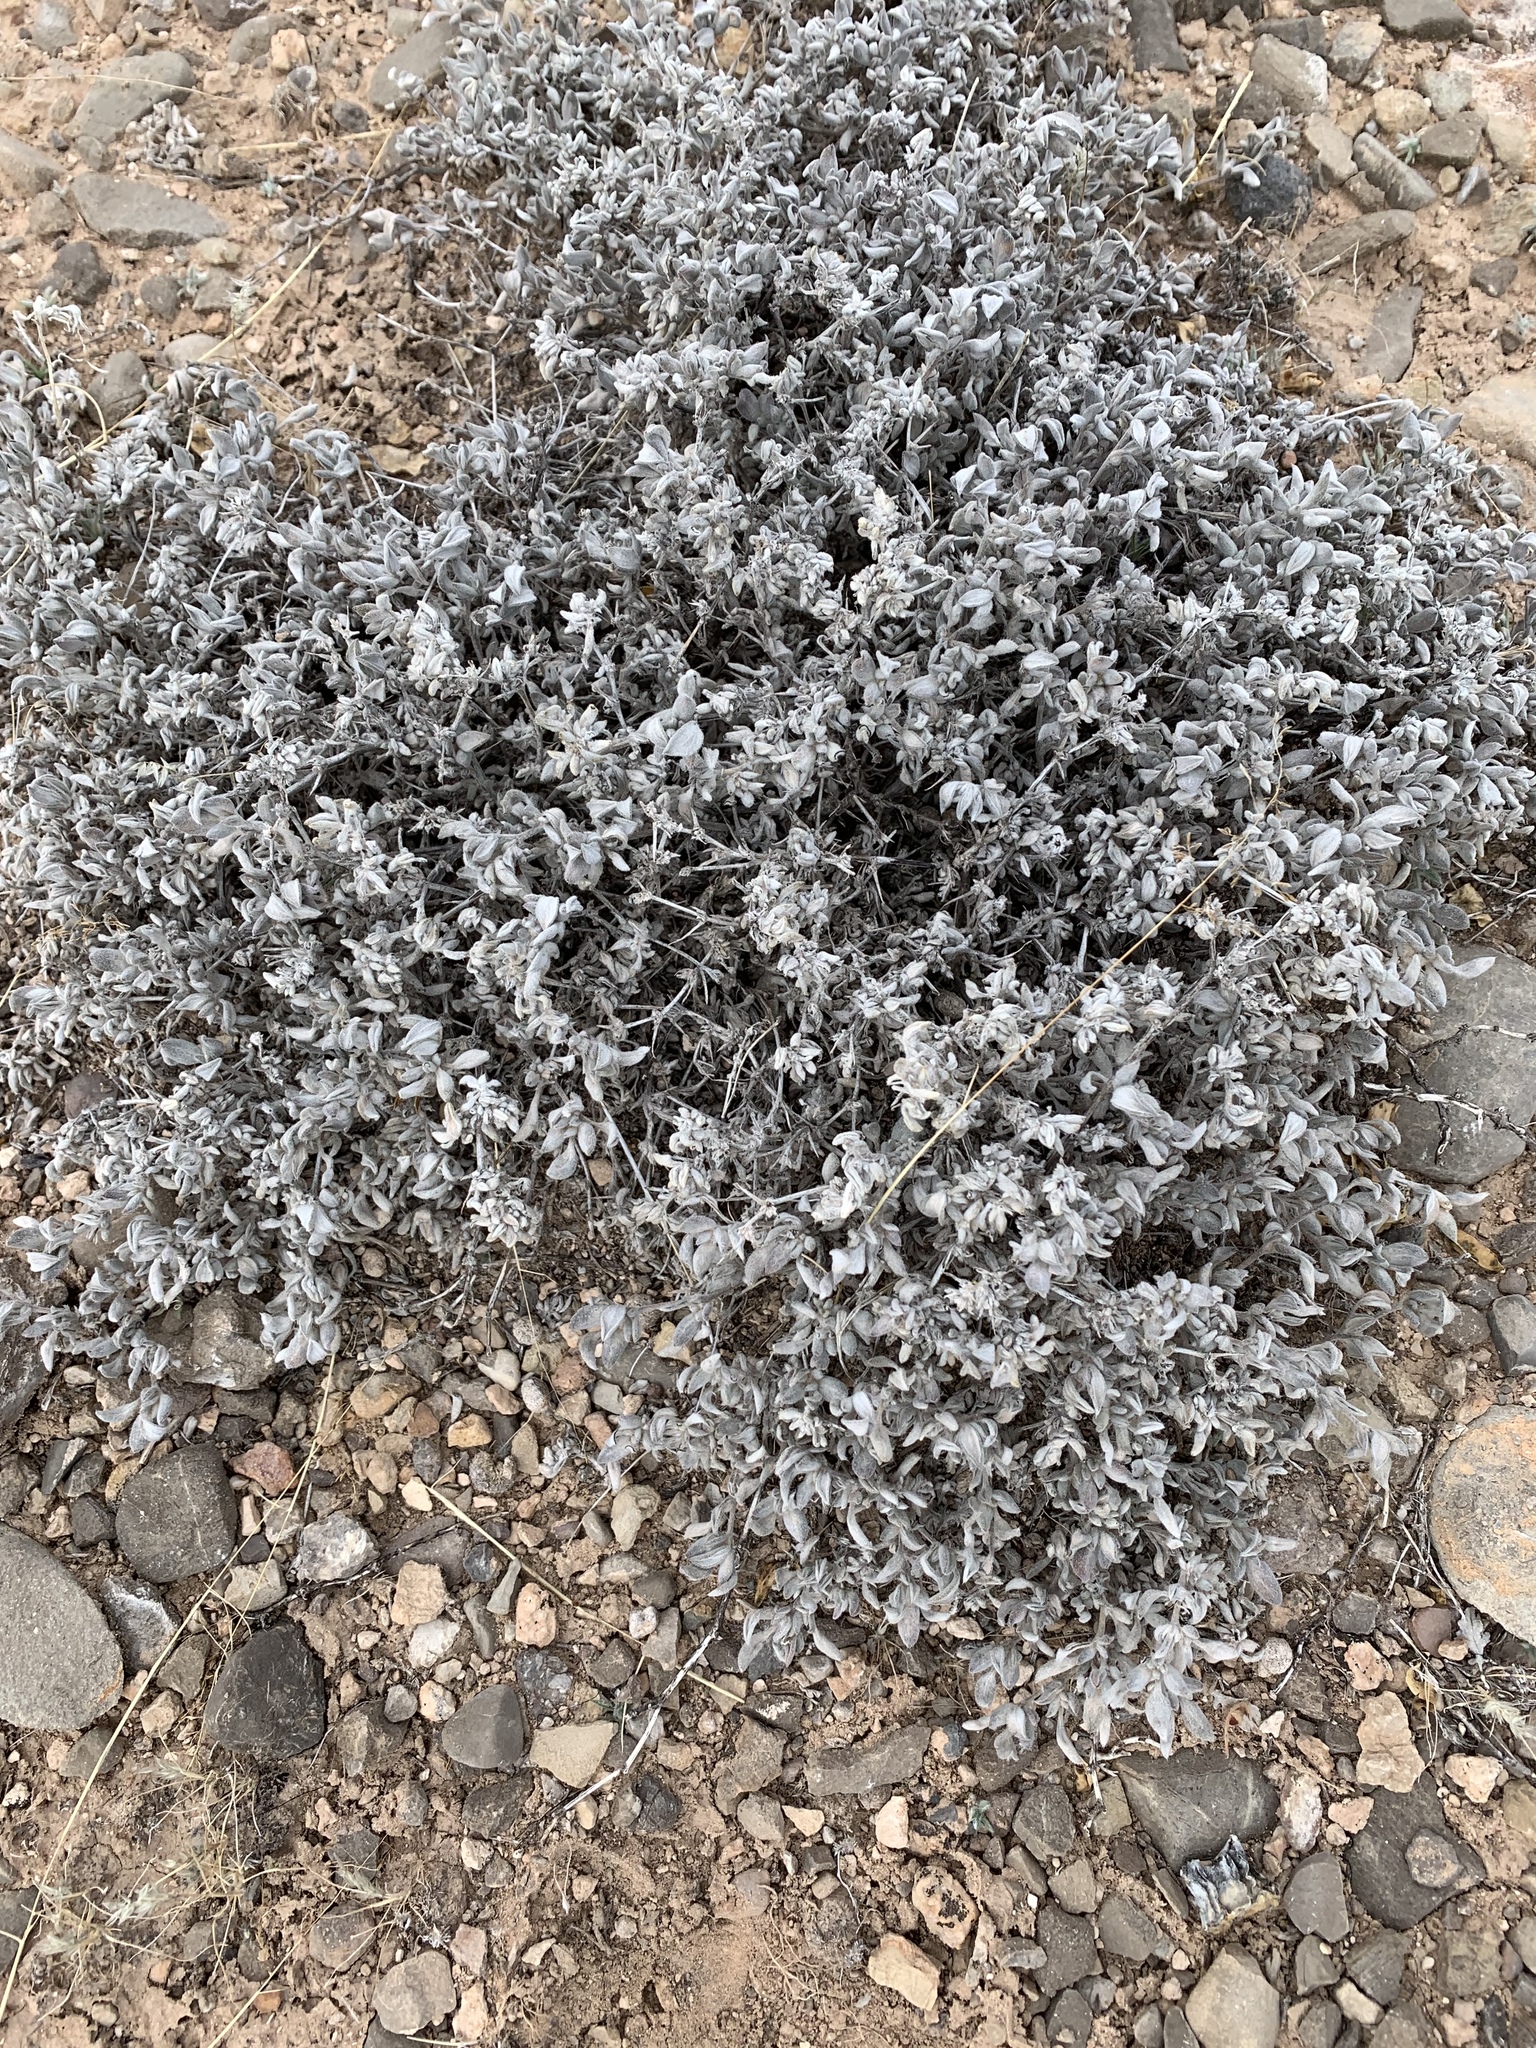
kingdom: Plantae
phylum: Tracheophyta
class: Magnoliopsida
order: Boraginales
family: Ehretiaceae
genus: Tiquilia
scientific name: Tiquilia canescens
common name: Hairy tiquilia
